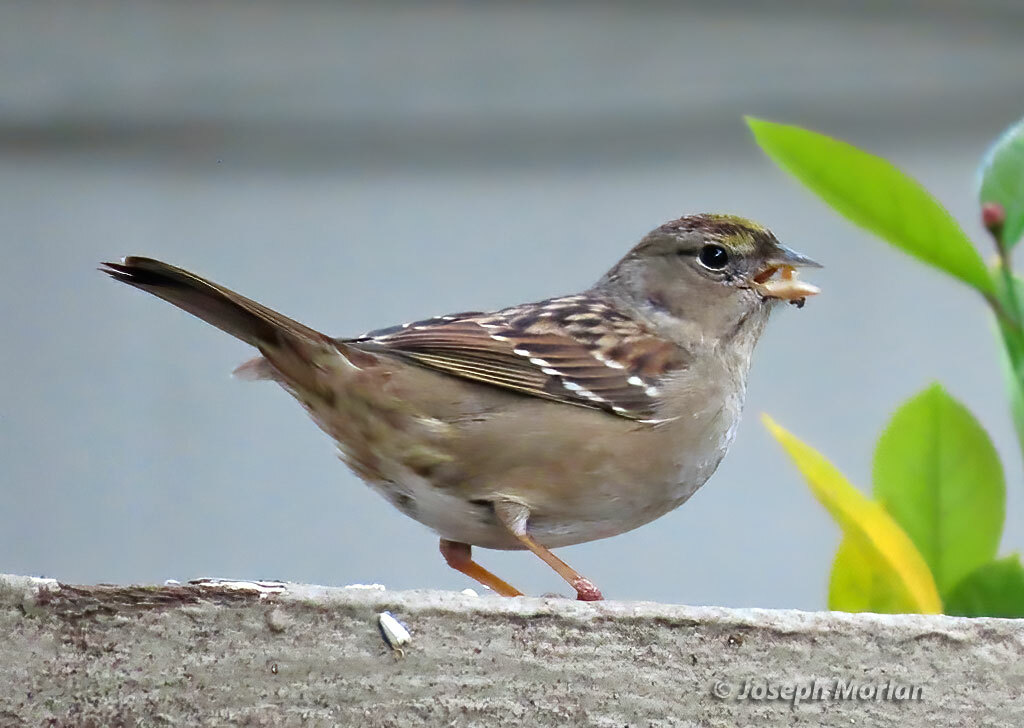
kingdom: Animalia
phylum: Chordata
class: Aves
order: Passeriformes
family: Passerellidae
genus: Zonotrichia
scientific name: Zonotrichia atricapilla
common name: Golden-crowned sparrow
